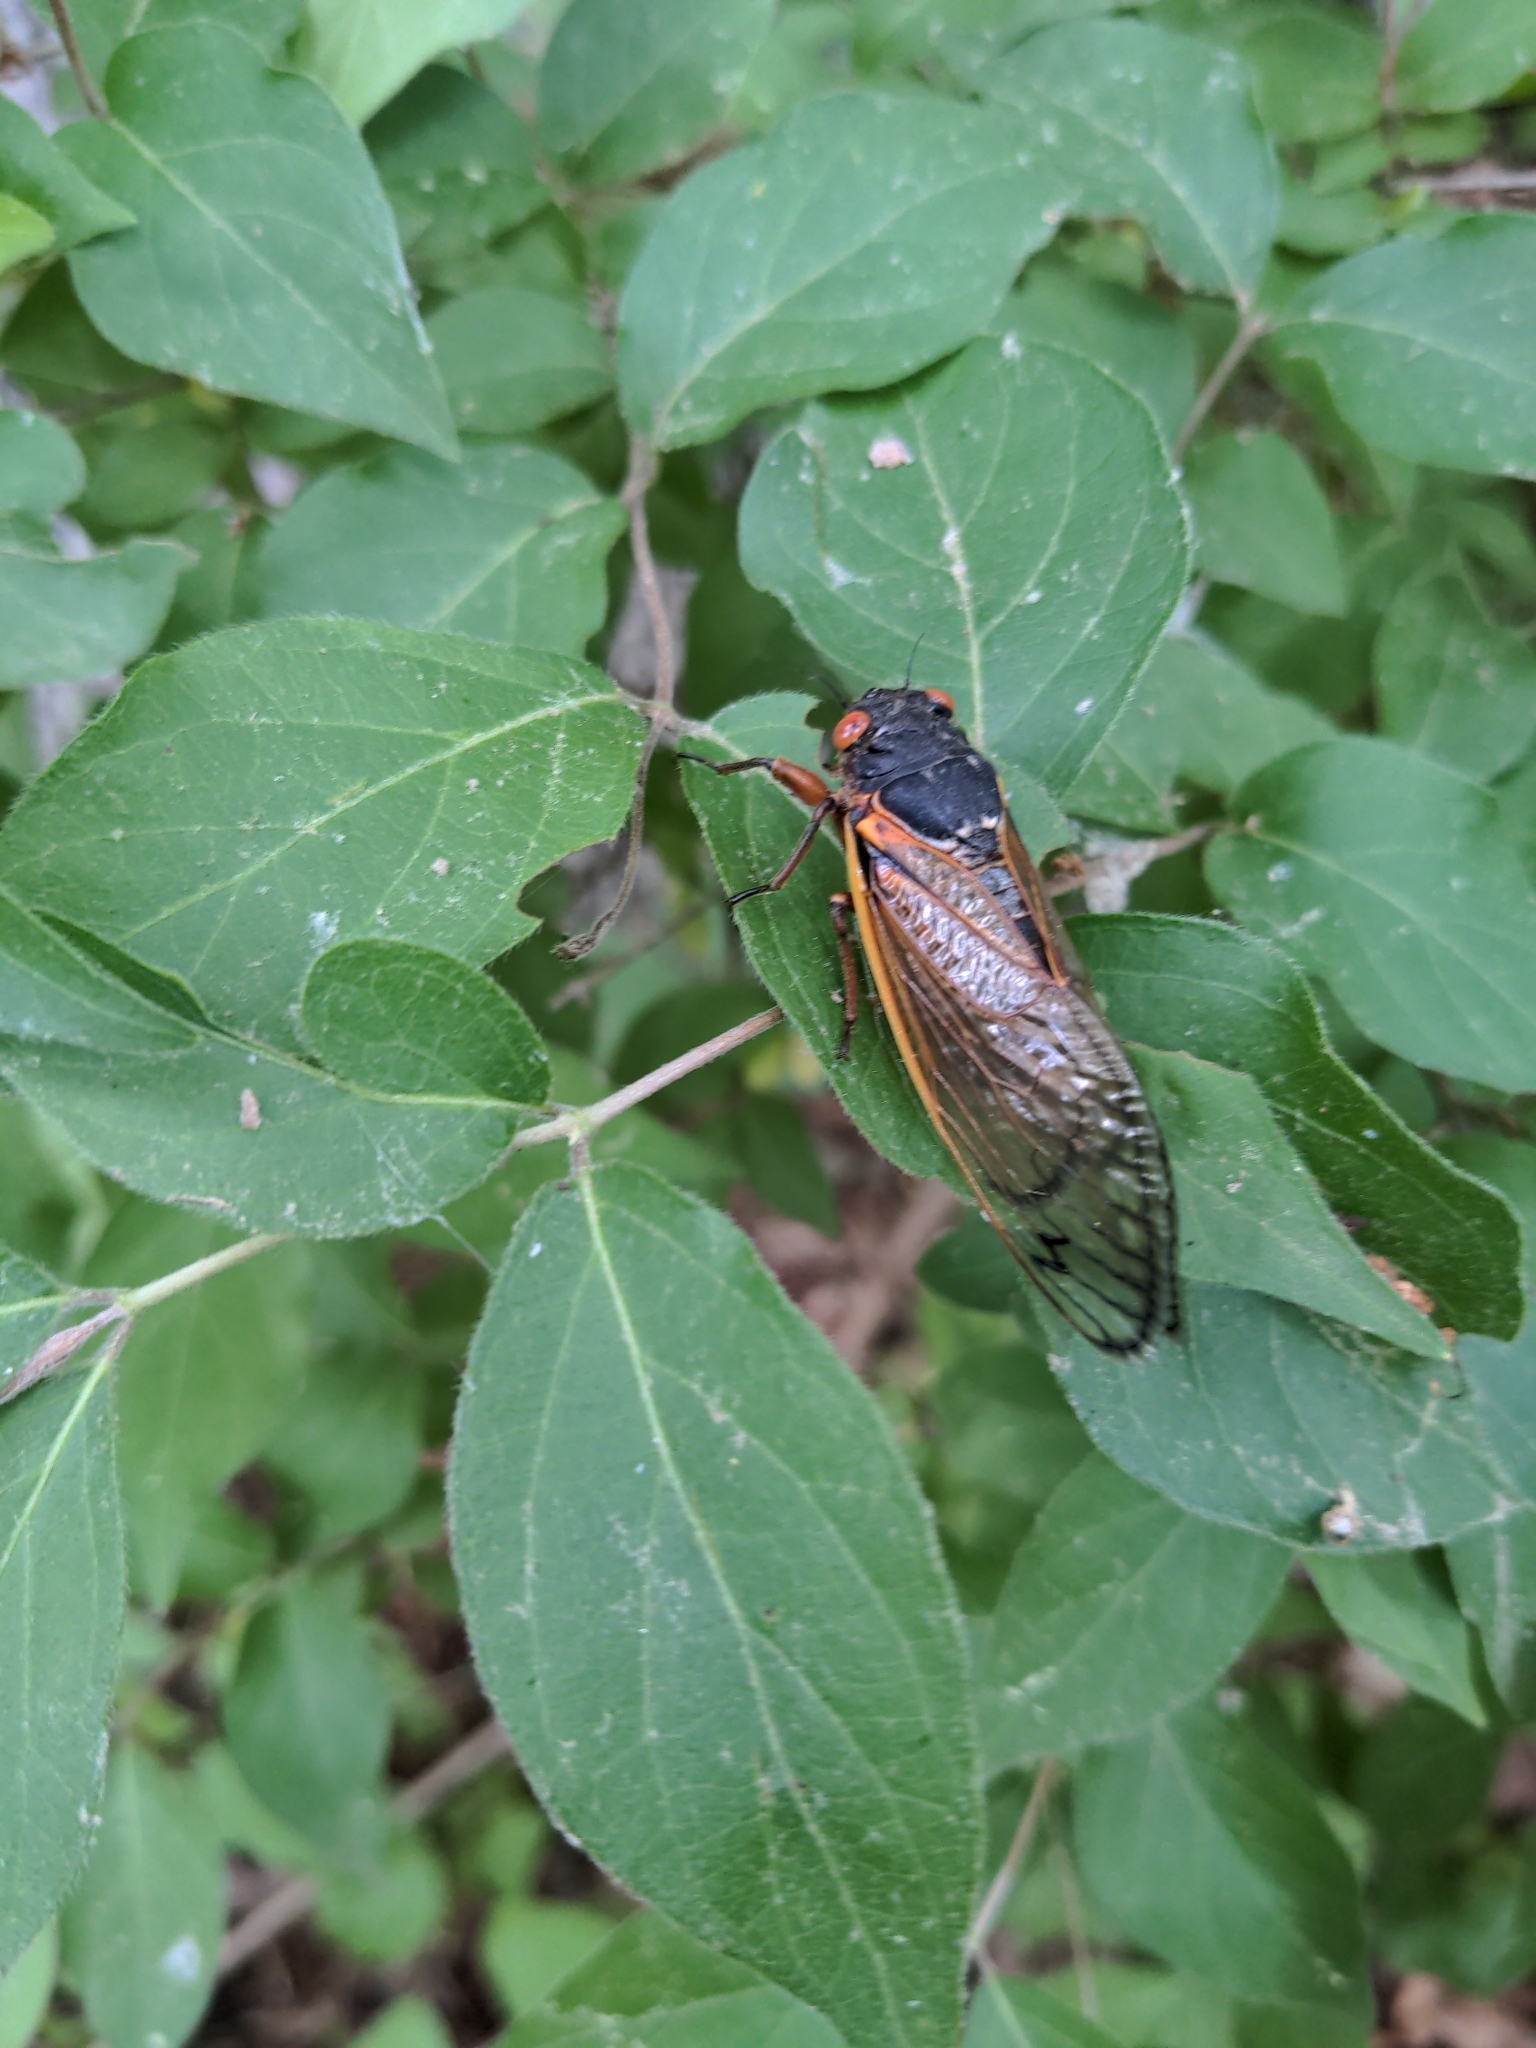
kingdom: Animalia
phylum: Arthropoda
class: Insecta
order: Hemiptera
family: Cicadidae
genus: Magicicada
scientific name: Magicicada
